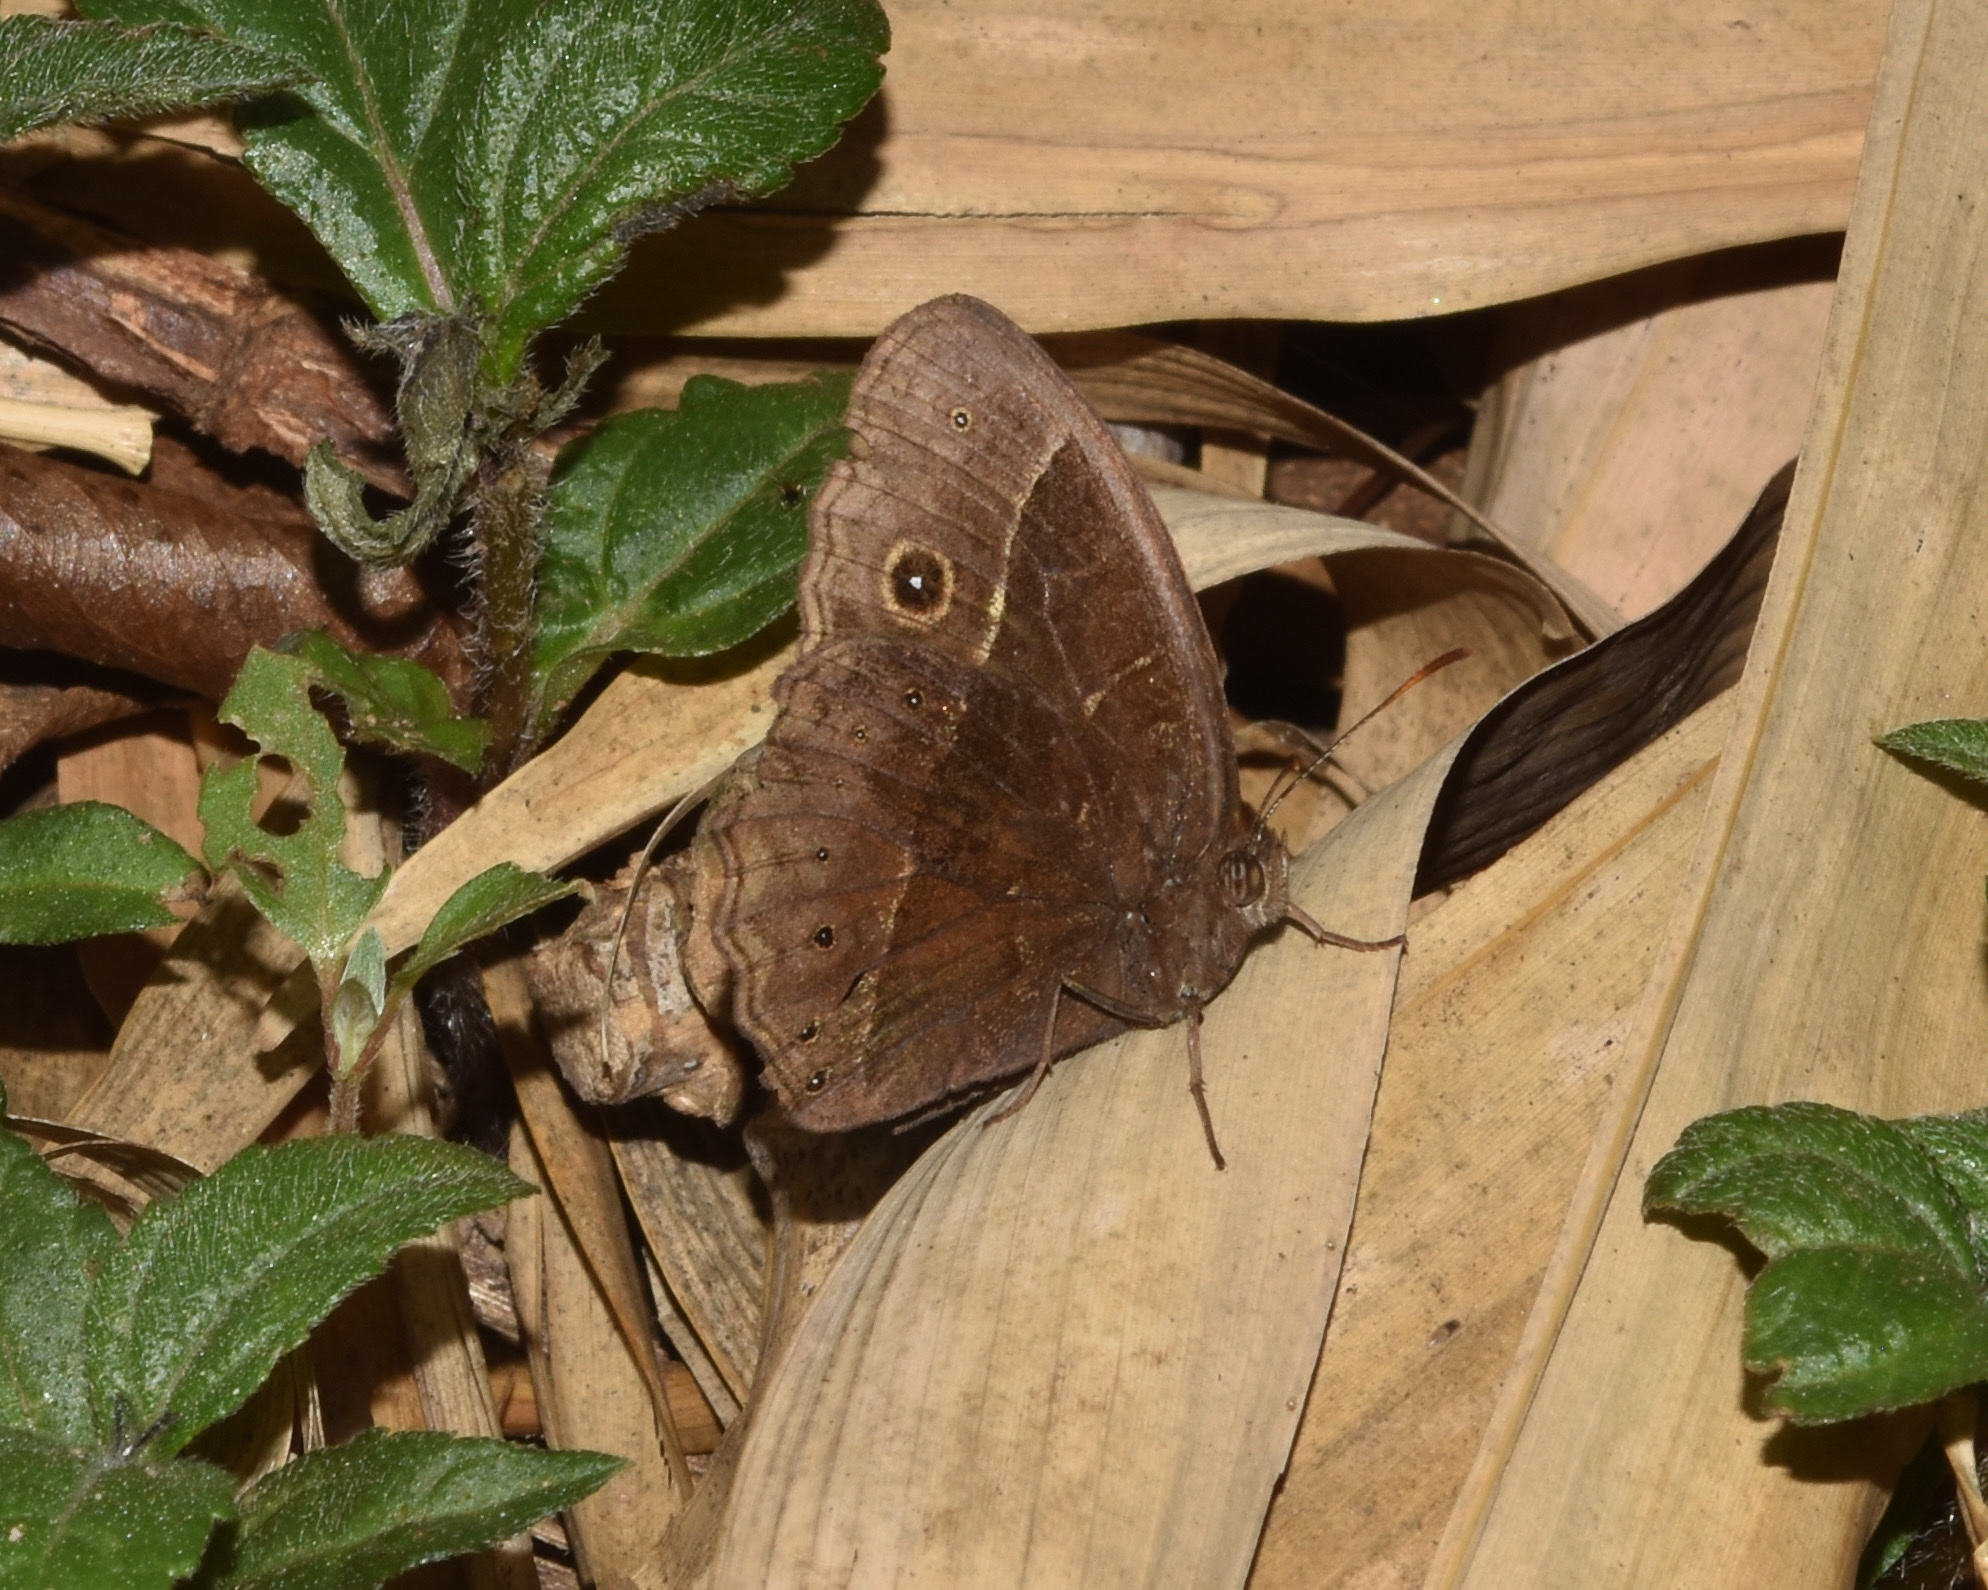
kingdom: Animalia
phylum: Arthropoda
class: Insecta
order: Lepidoptera
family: Nymphalidae
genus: Mycalesis
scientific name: Mycalesis rhacotis
